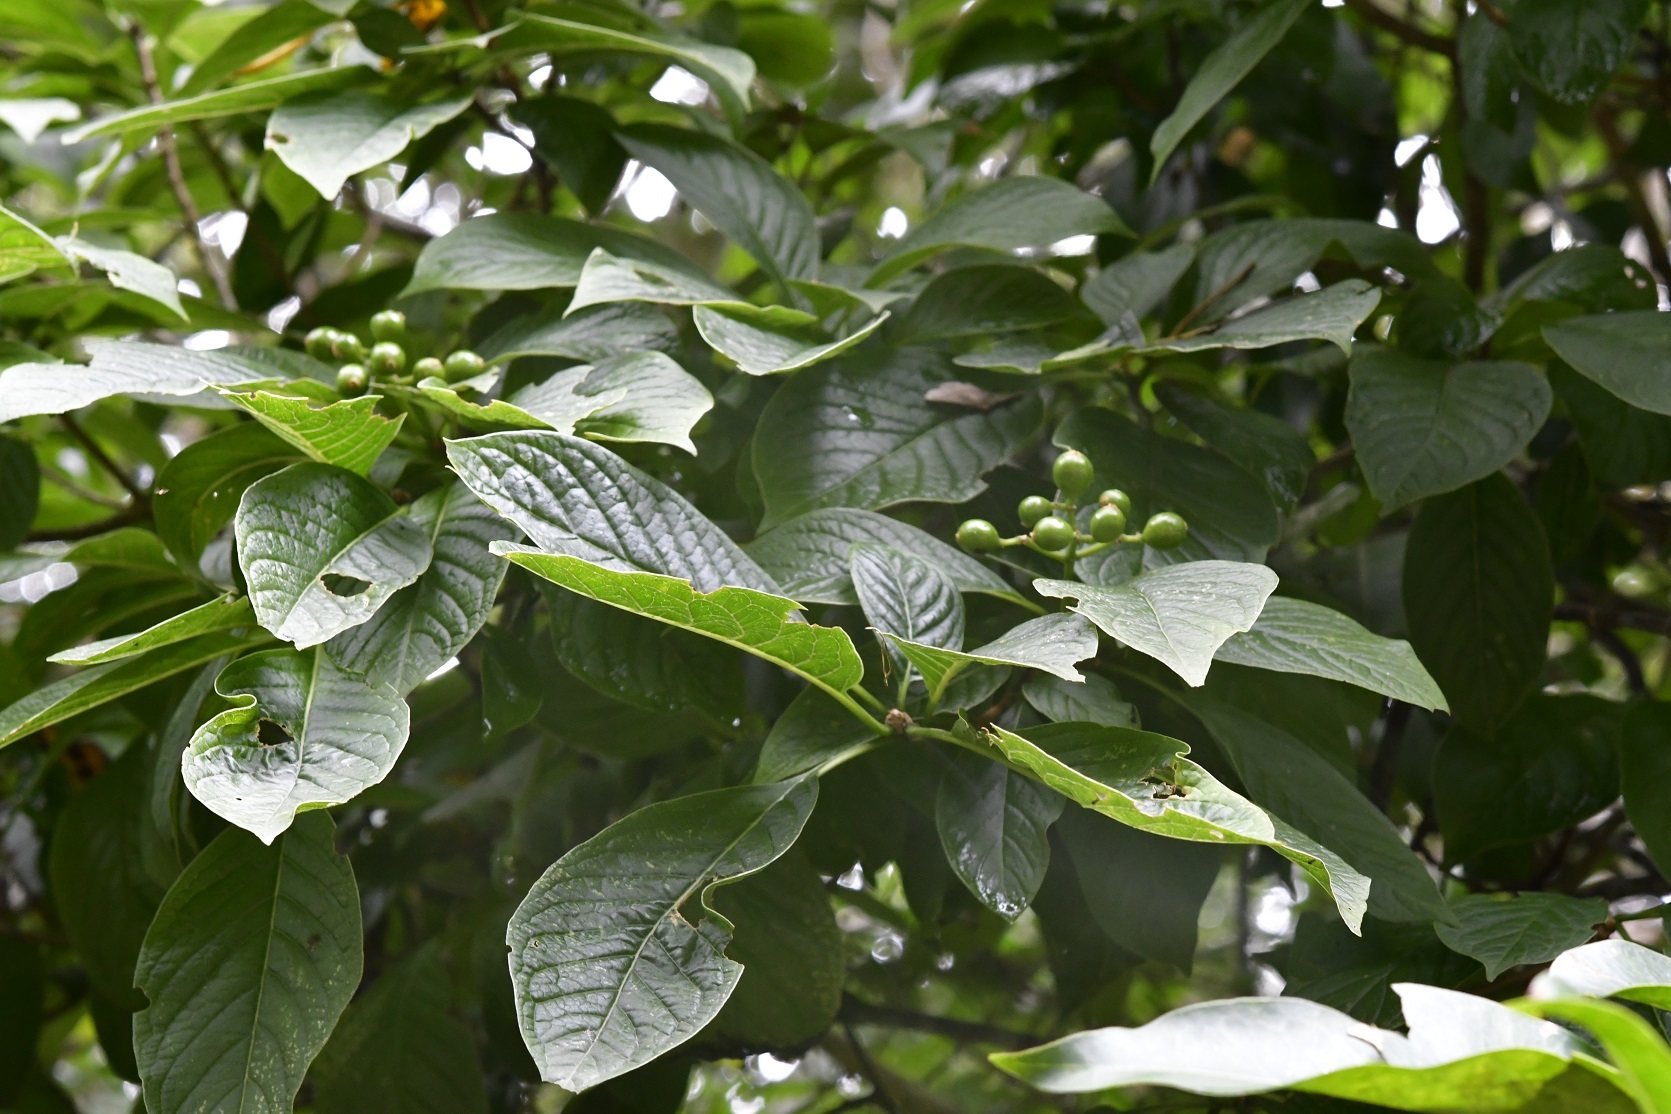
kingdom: Plantae
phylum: Tracheophyta
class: Magnoliopsida
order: Gentianales
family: Rubiaceae
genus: Coussarea
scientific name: Coussarea chiapensis
